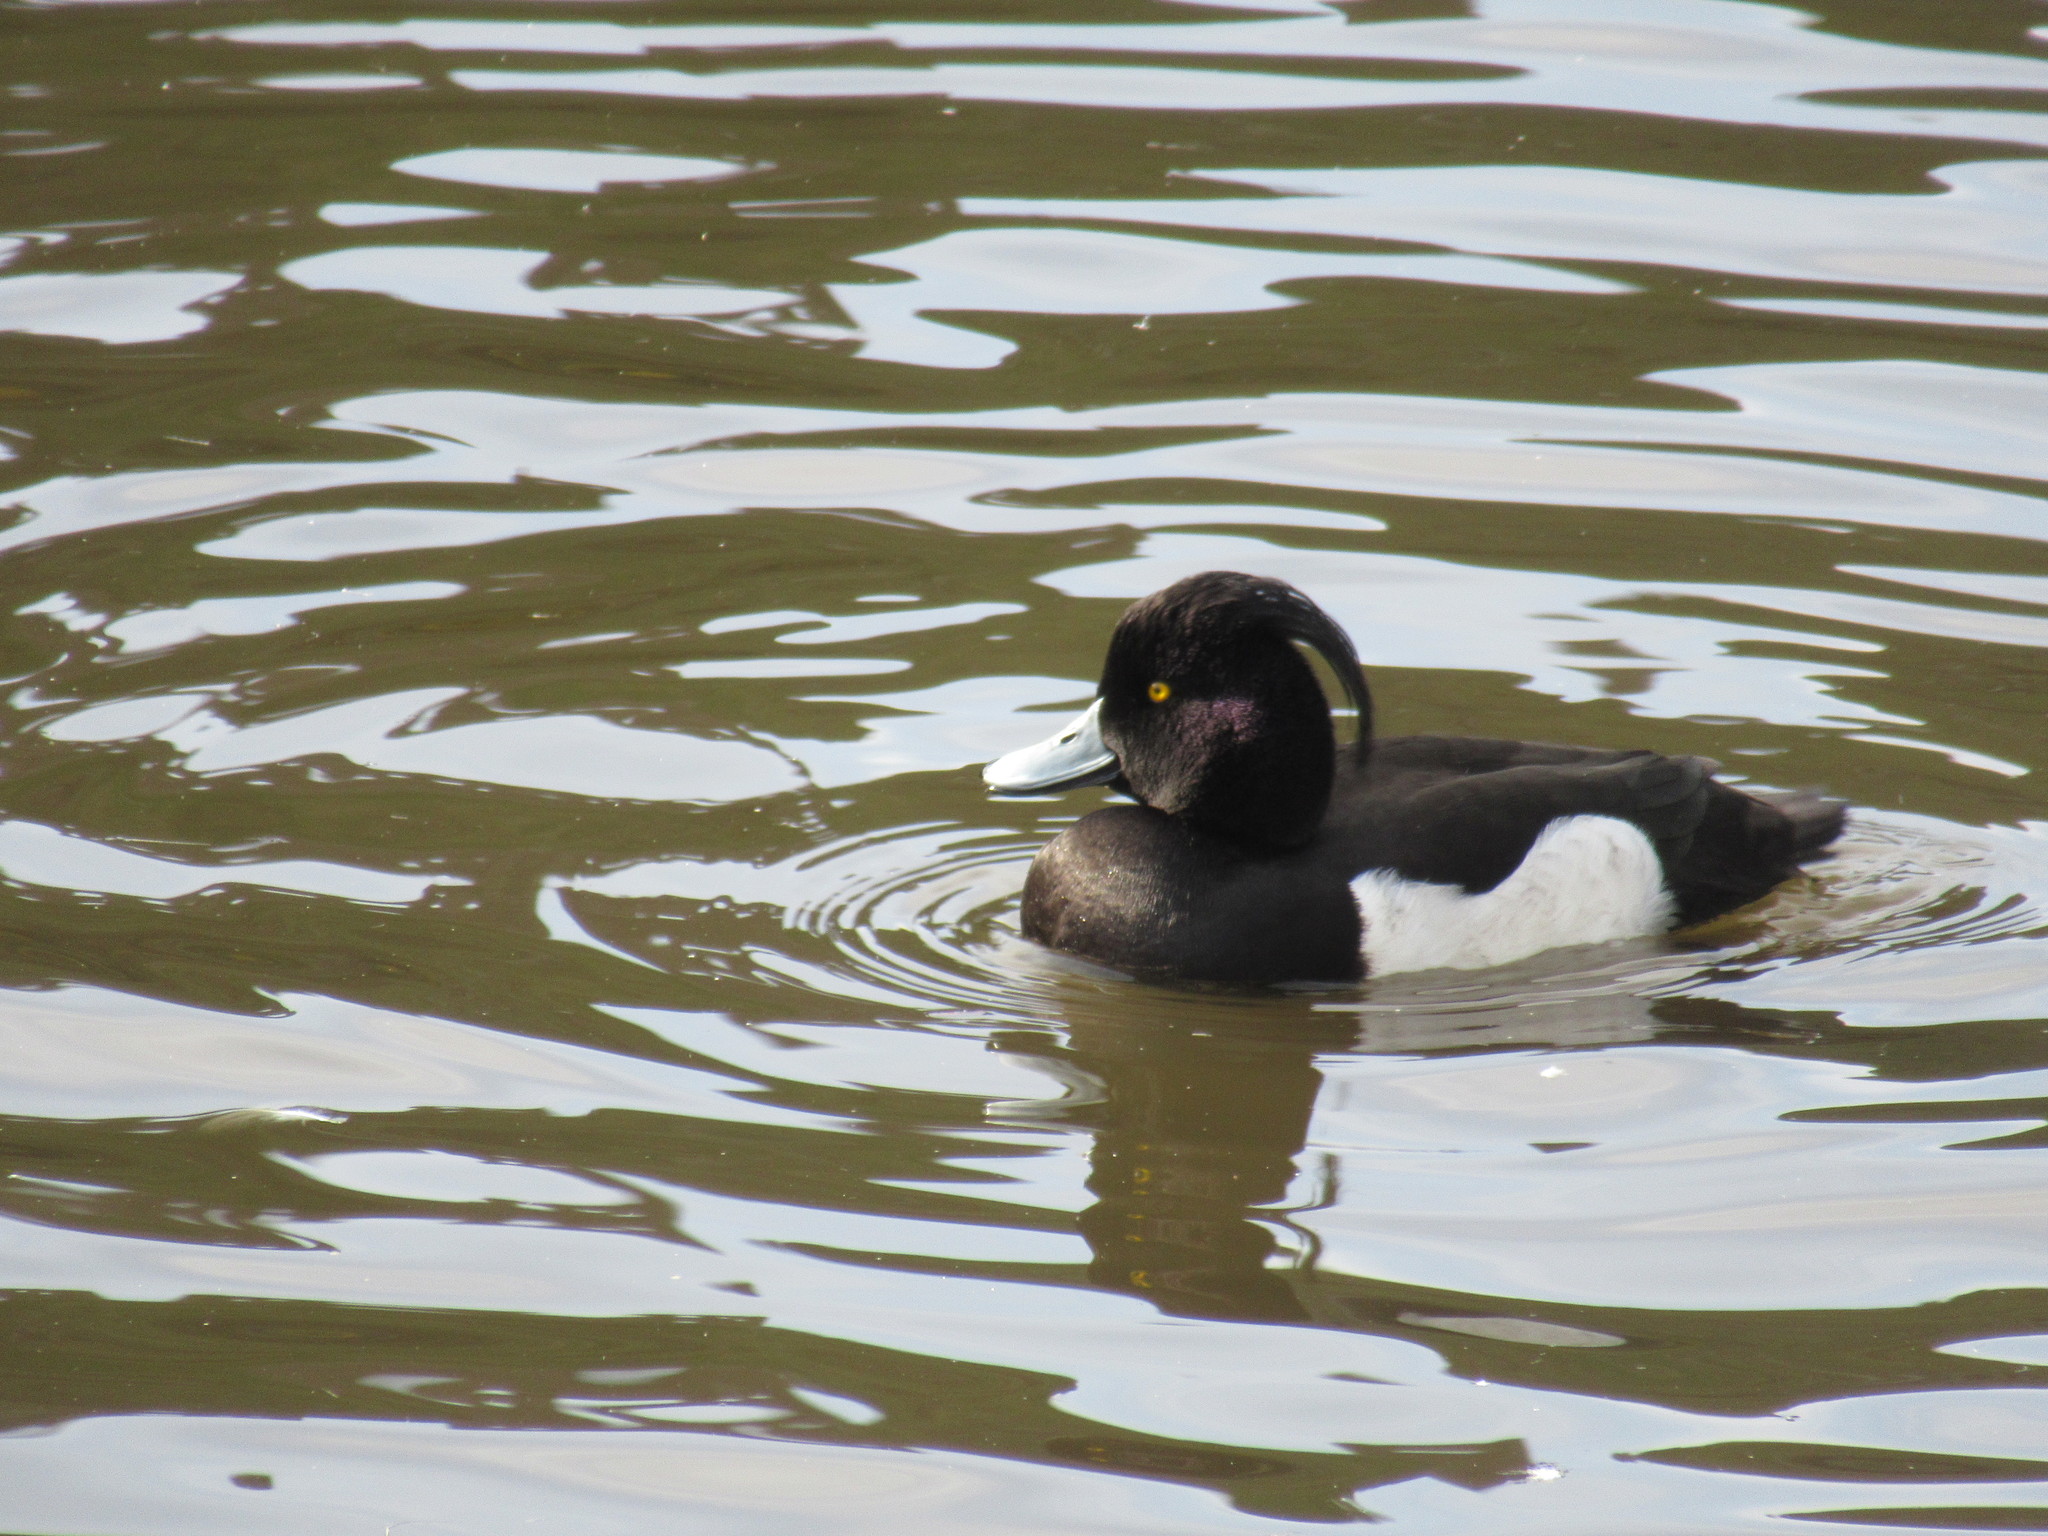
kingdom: Animalia
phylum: Chordata
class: Aves
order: Anseriformes
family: Anatidae
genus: Aythya
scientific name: Aythya fuligula
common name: Tufted duck
